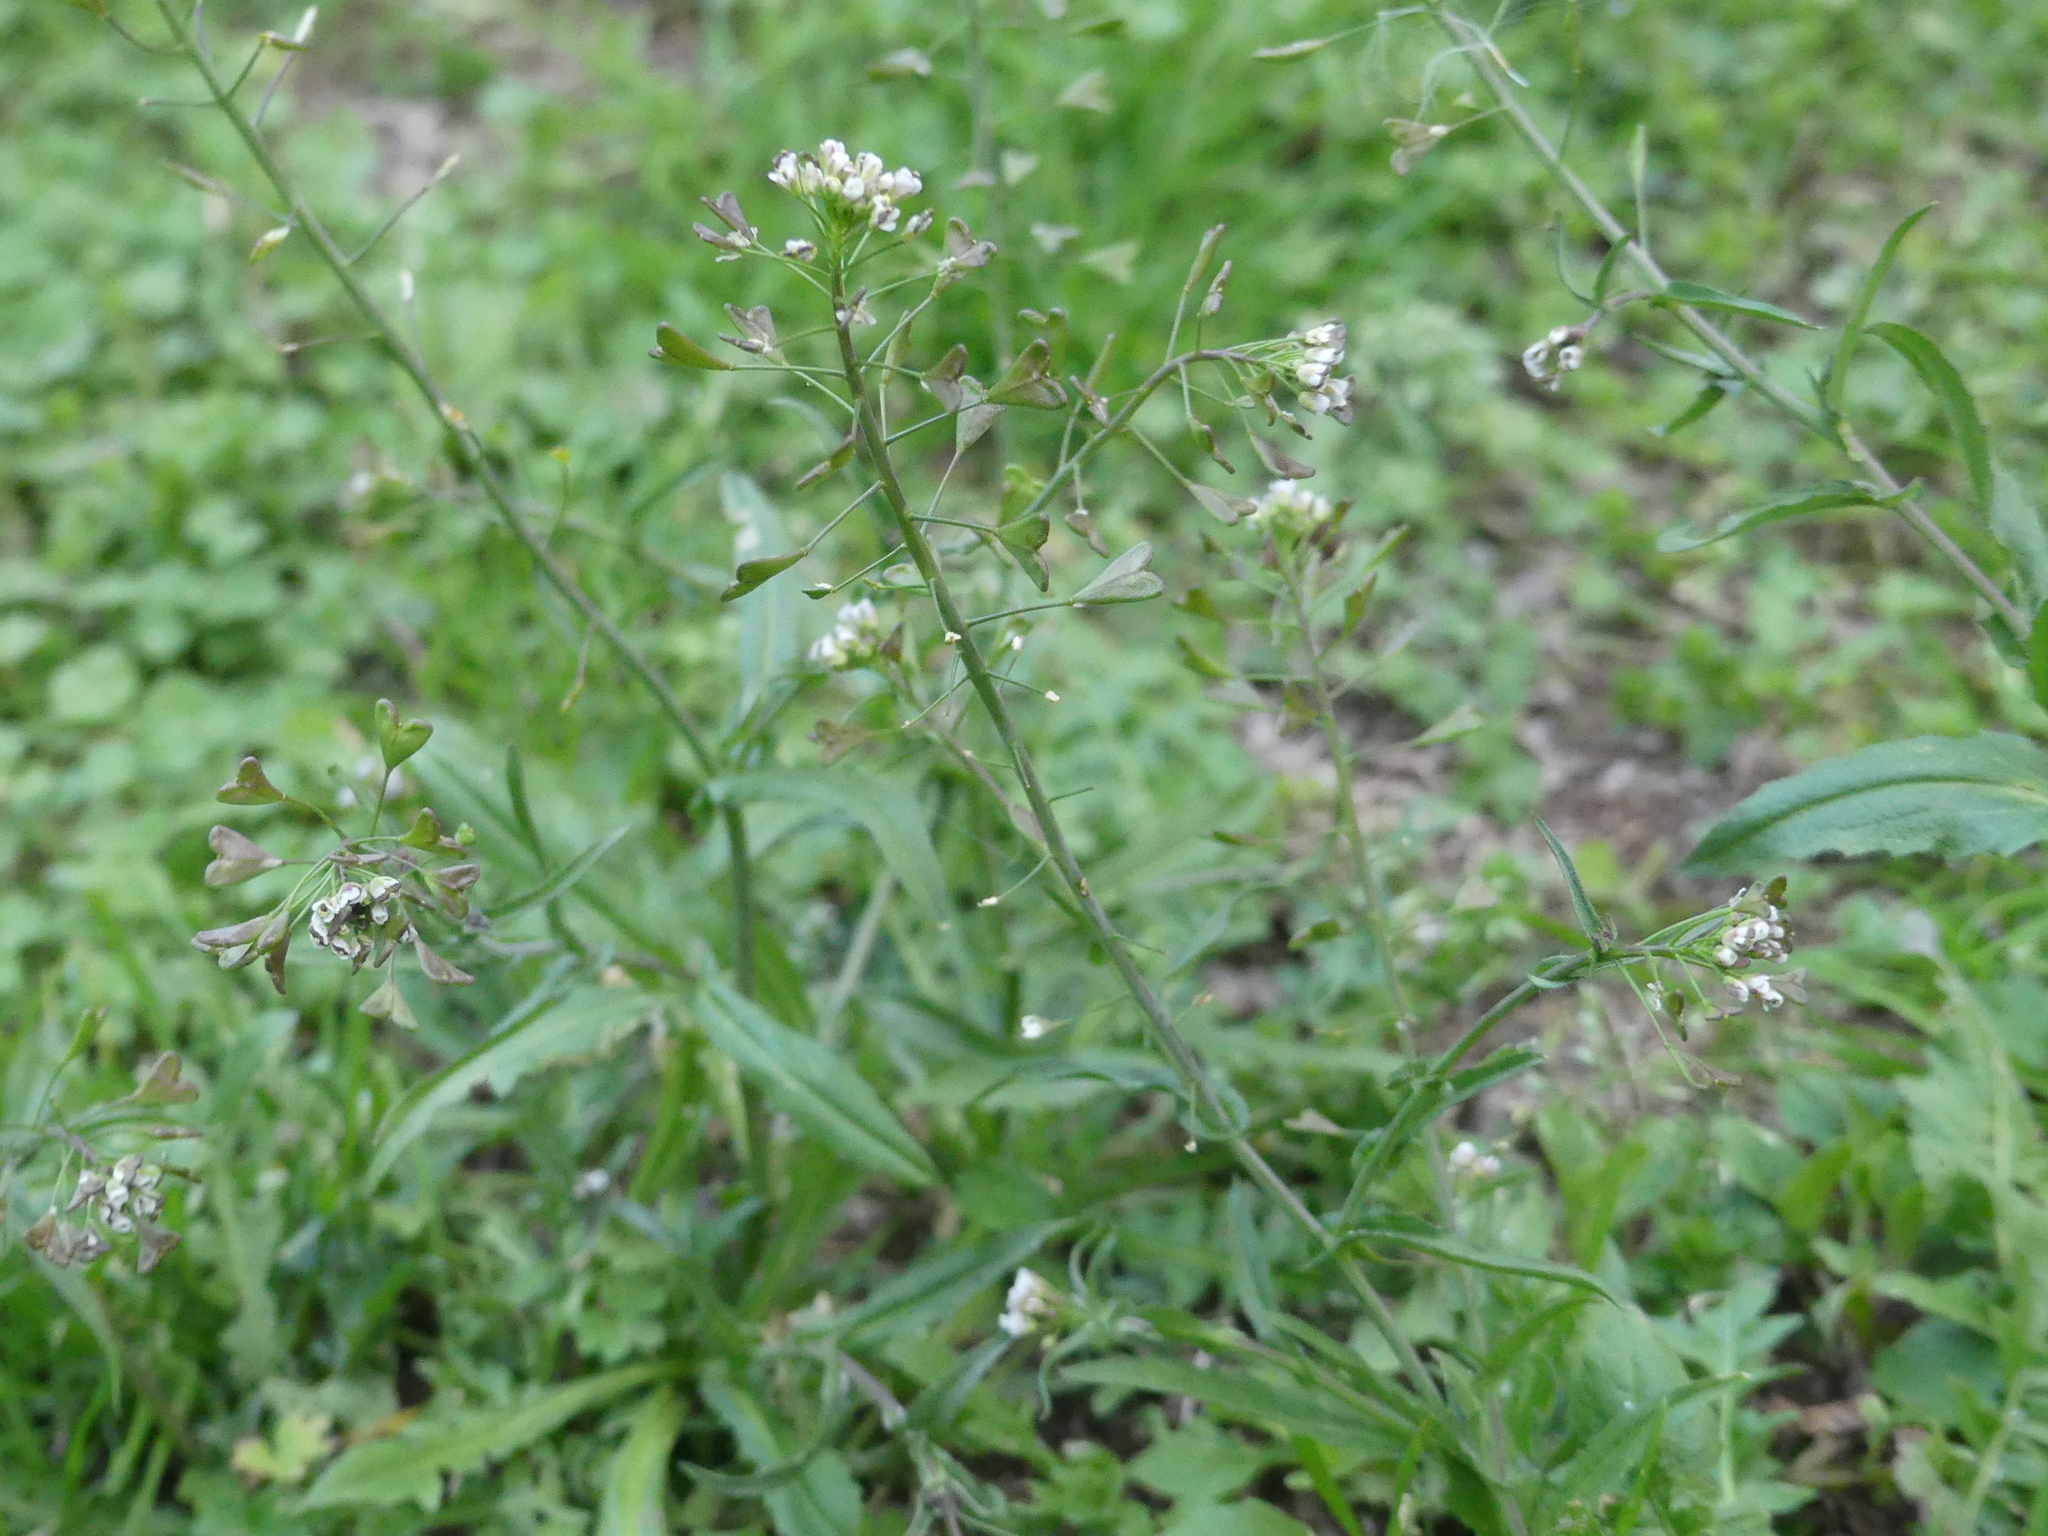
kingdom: Plantae
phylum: Tracheophyta
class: Magnoliopsida
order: Brassicales
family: Brassicaceae
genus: Capsella
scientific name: Capsella bursa-pastoris
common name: Shepherd's purse
